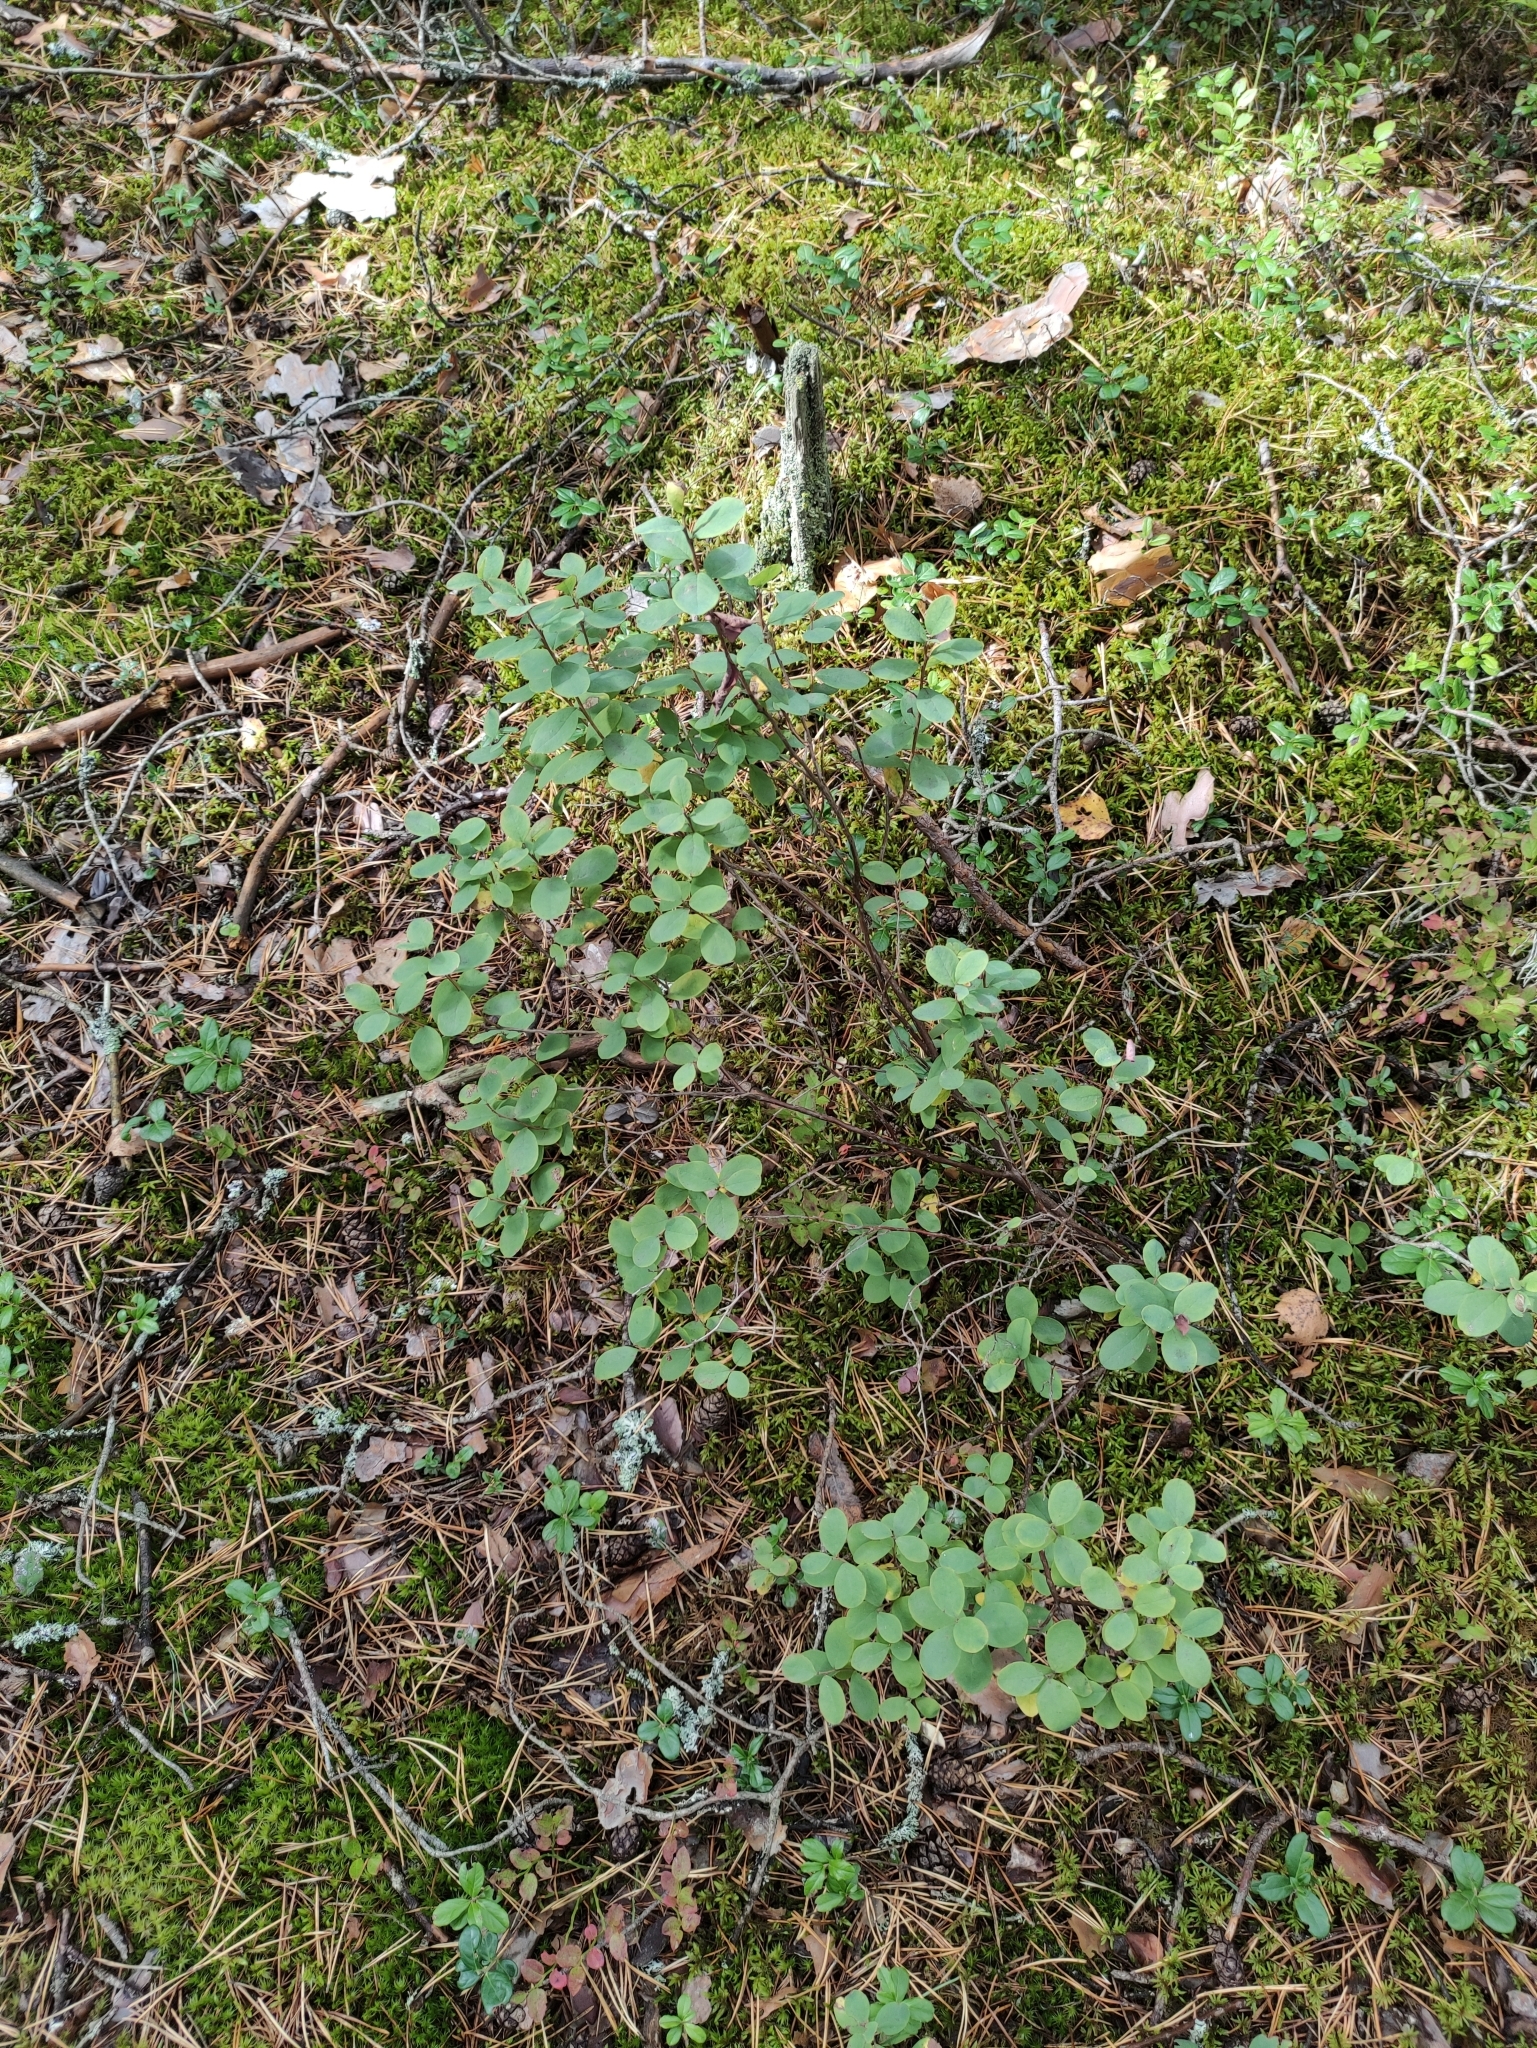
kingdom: Plantae
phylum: Tracheophyta
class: Magnoliopsida
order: Ericales
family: Ericaceae
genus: Vaccinium
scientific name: Vaccinium uliginosum
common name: Bog bilberry
